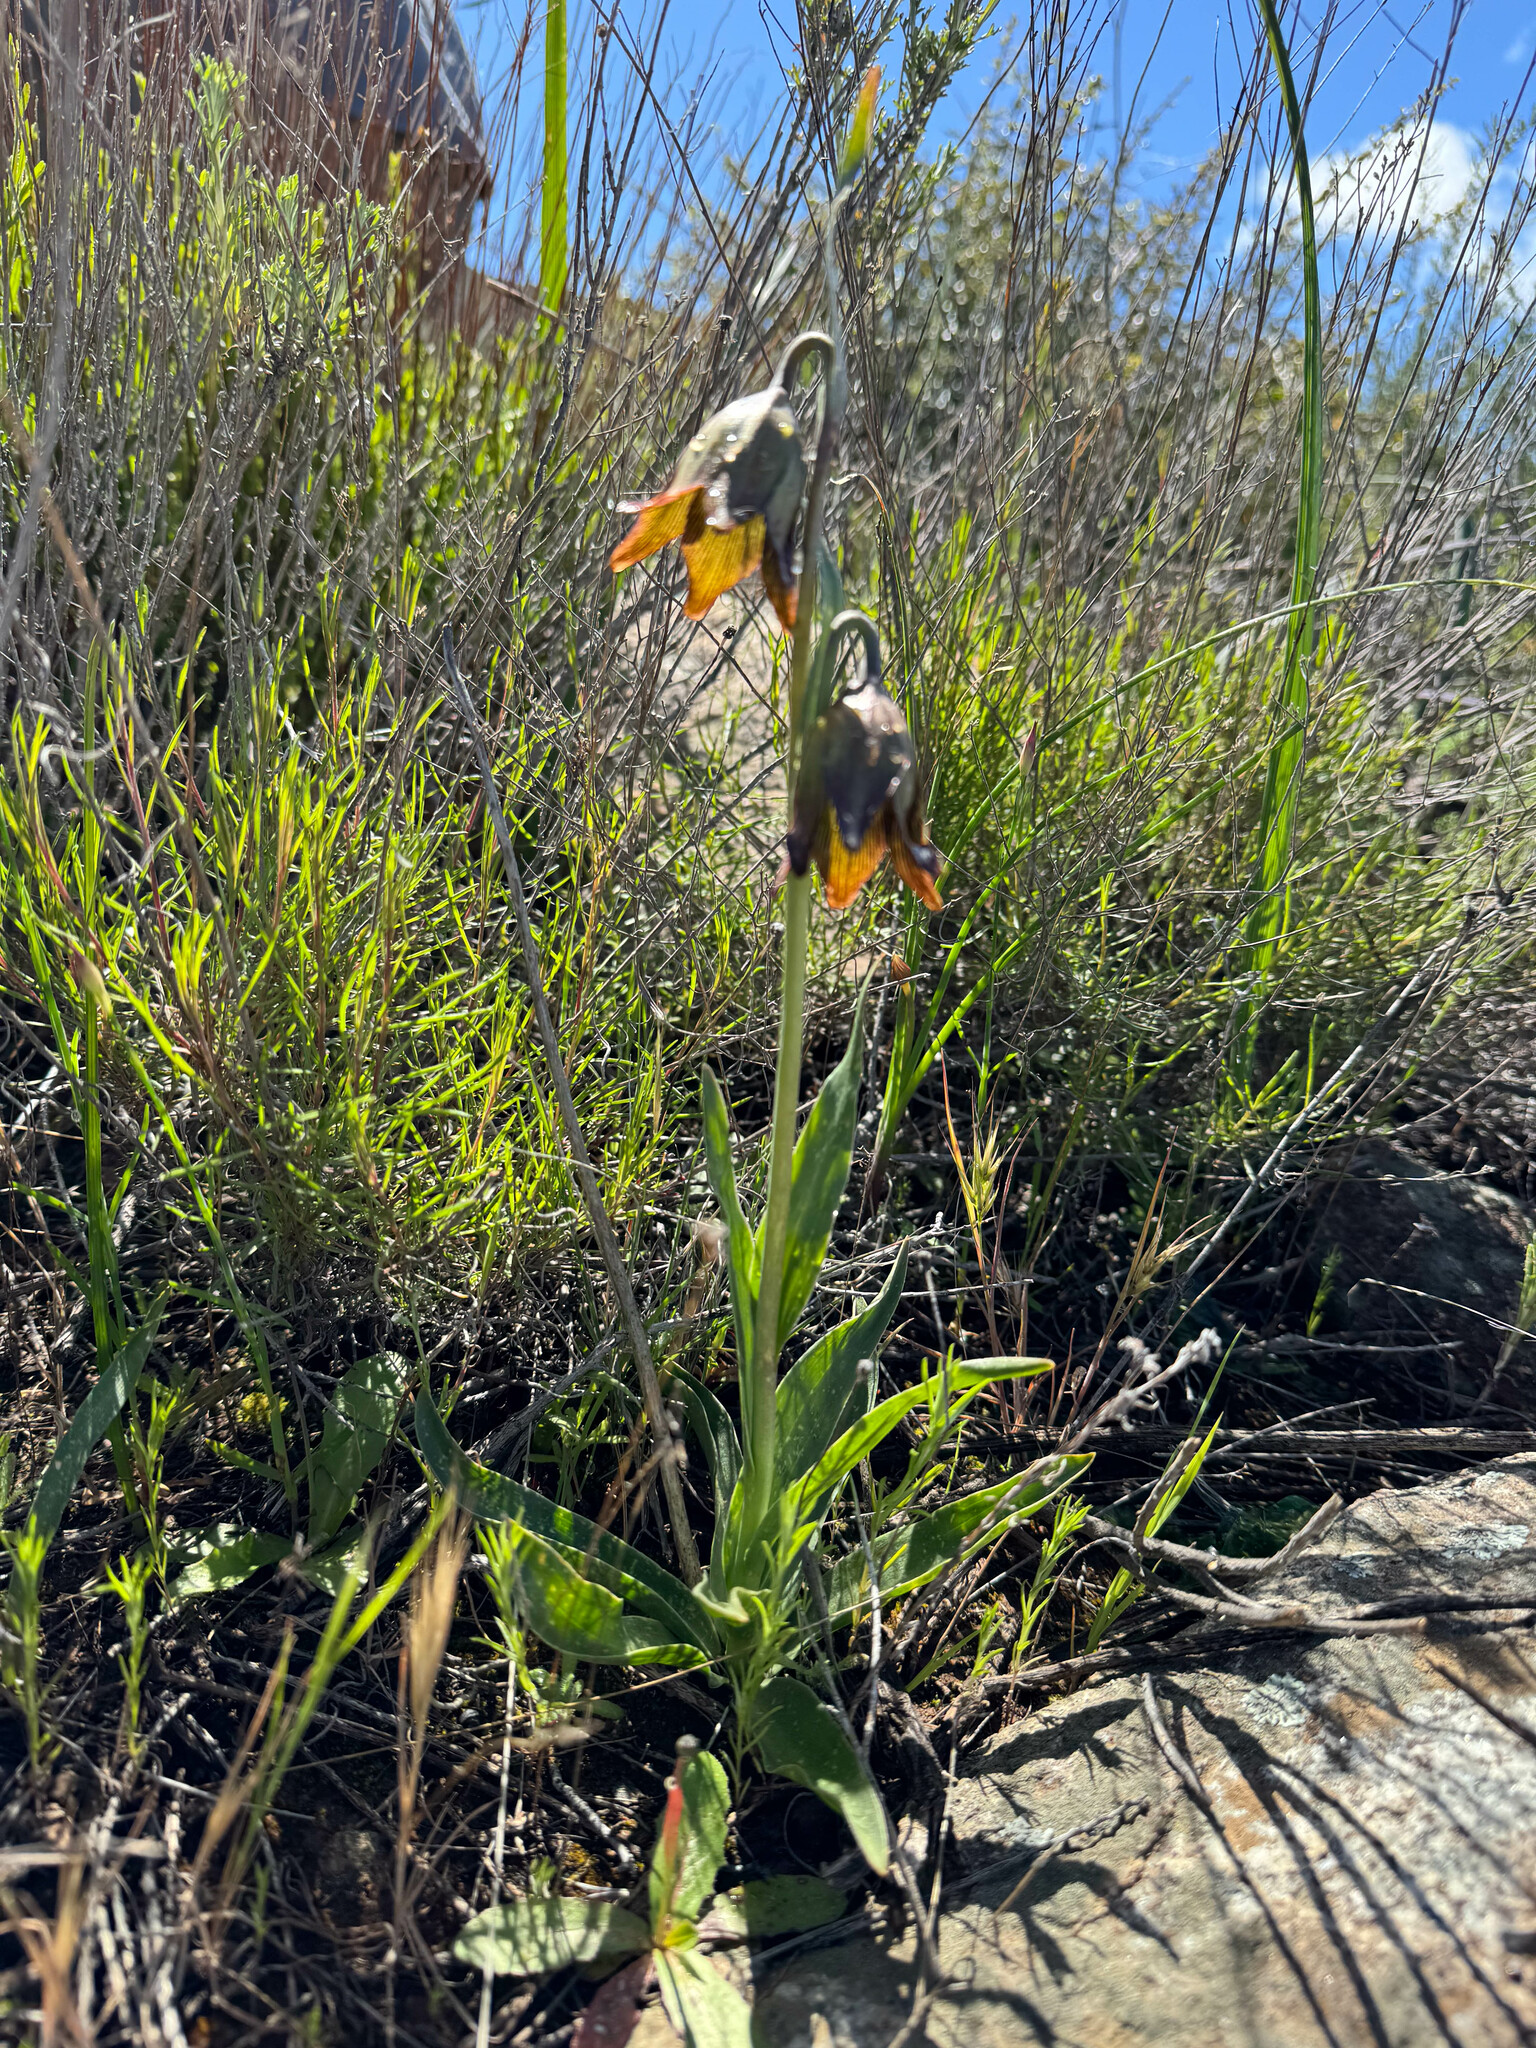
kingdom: Plantae
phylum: Tracheophyta
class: Liliopsida
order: Liliales
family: Liliaceae
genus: Fritillaria
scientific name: Fritillaria biflora
